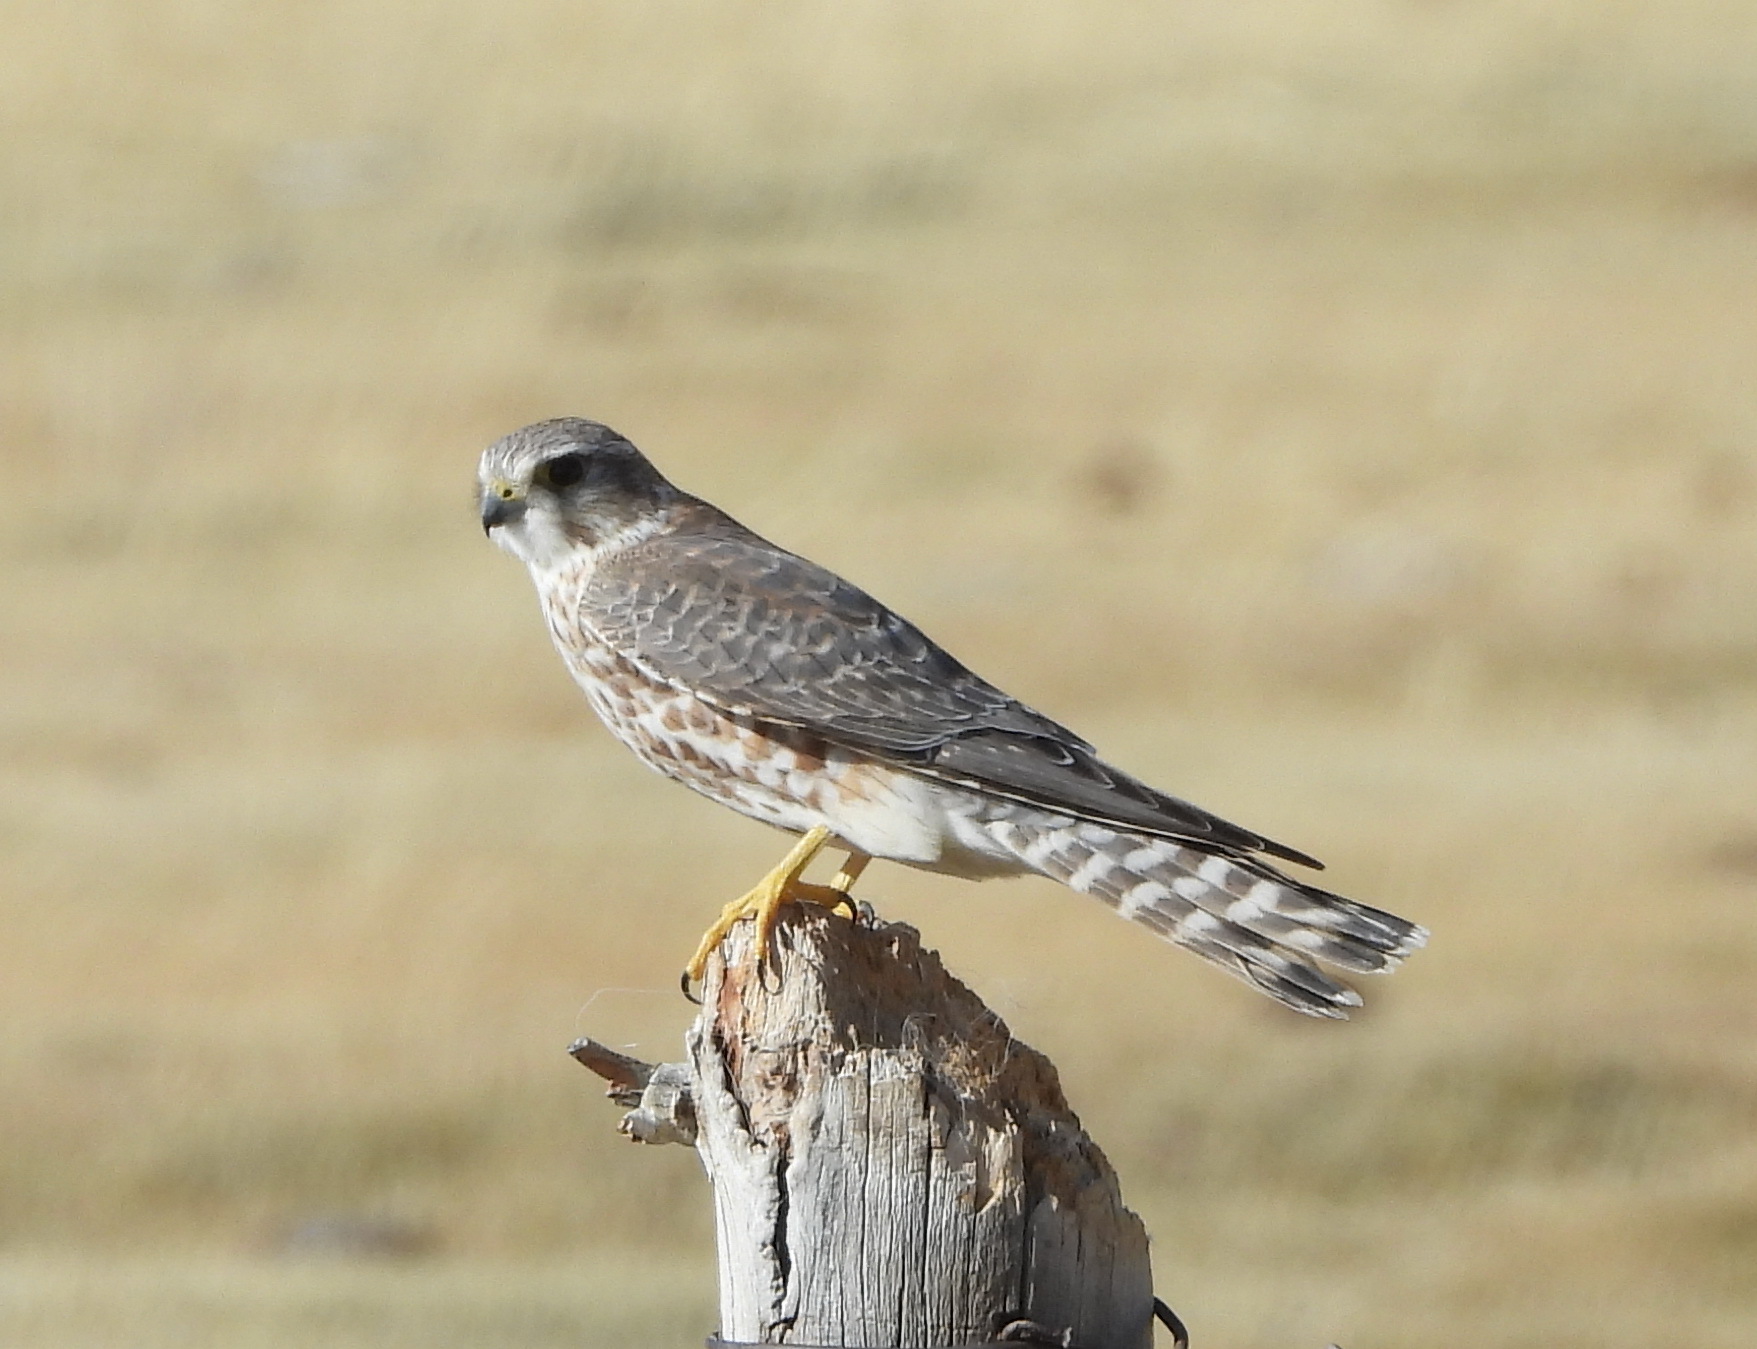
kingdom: Animalia
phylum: Chordata
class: Aves
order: Falconiformes
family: Falconidae
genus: Falco
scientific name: Falco columbarius
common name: Merlin
